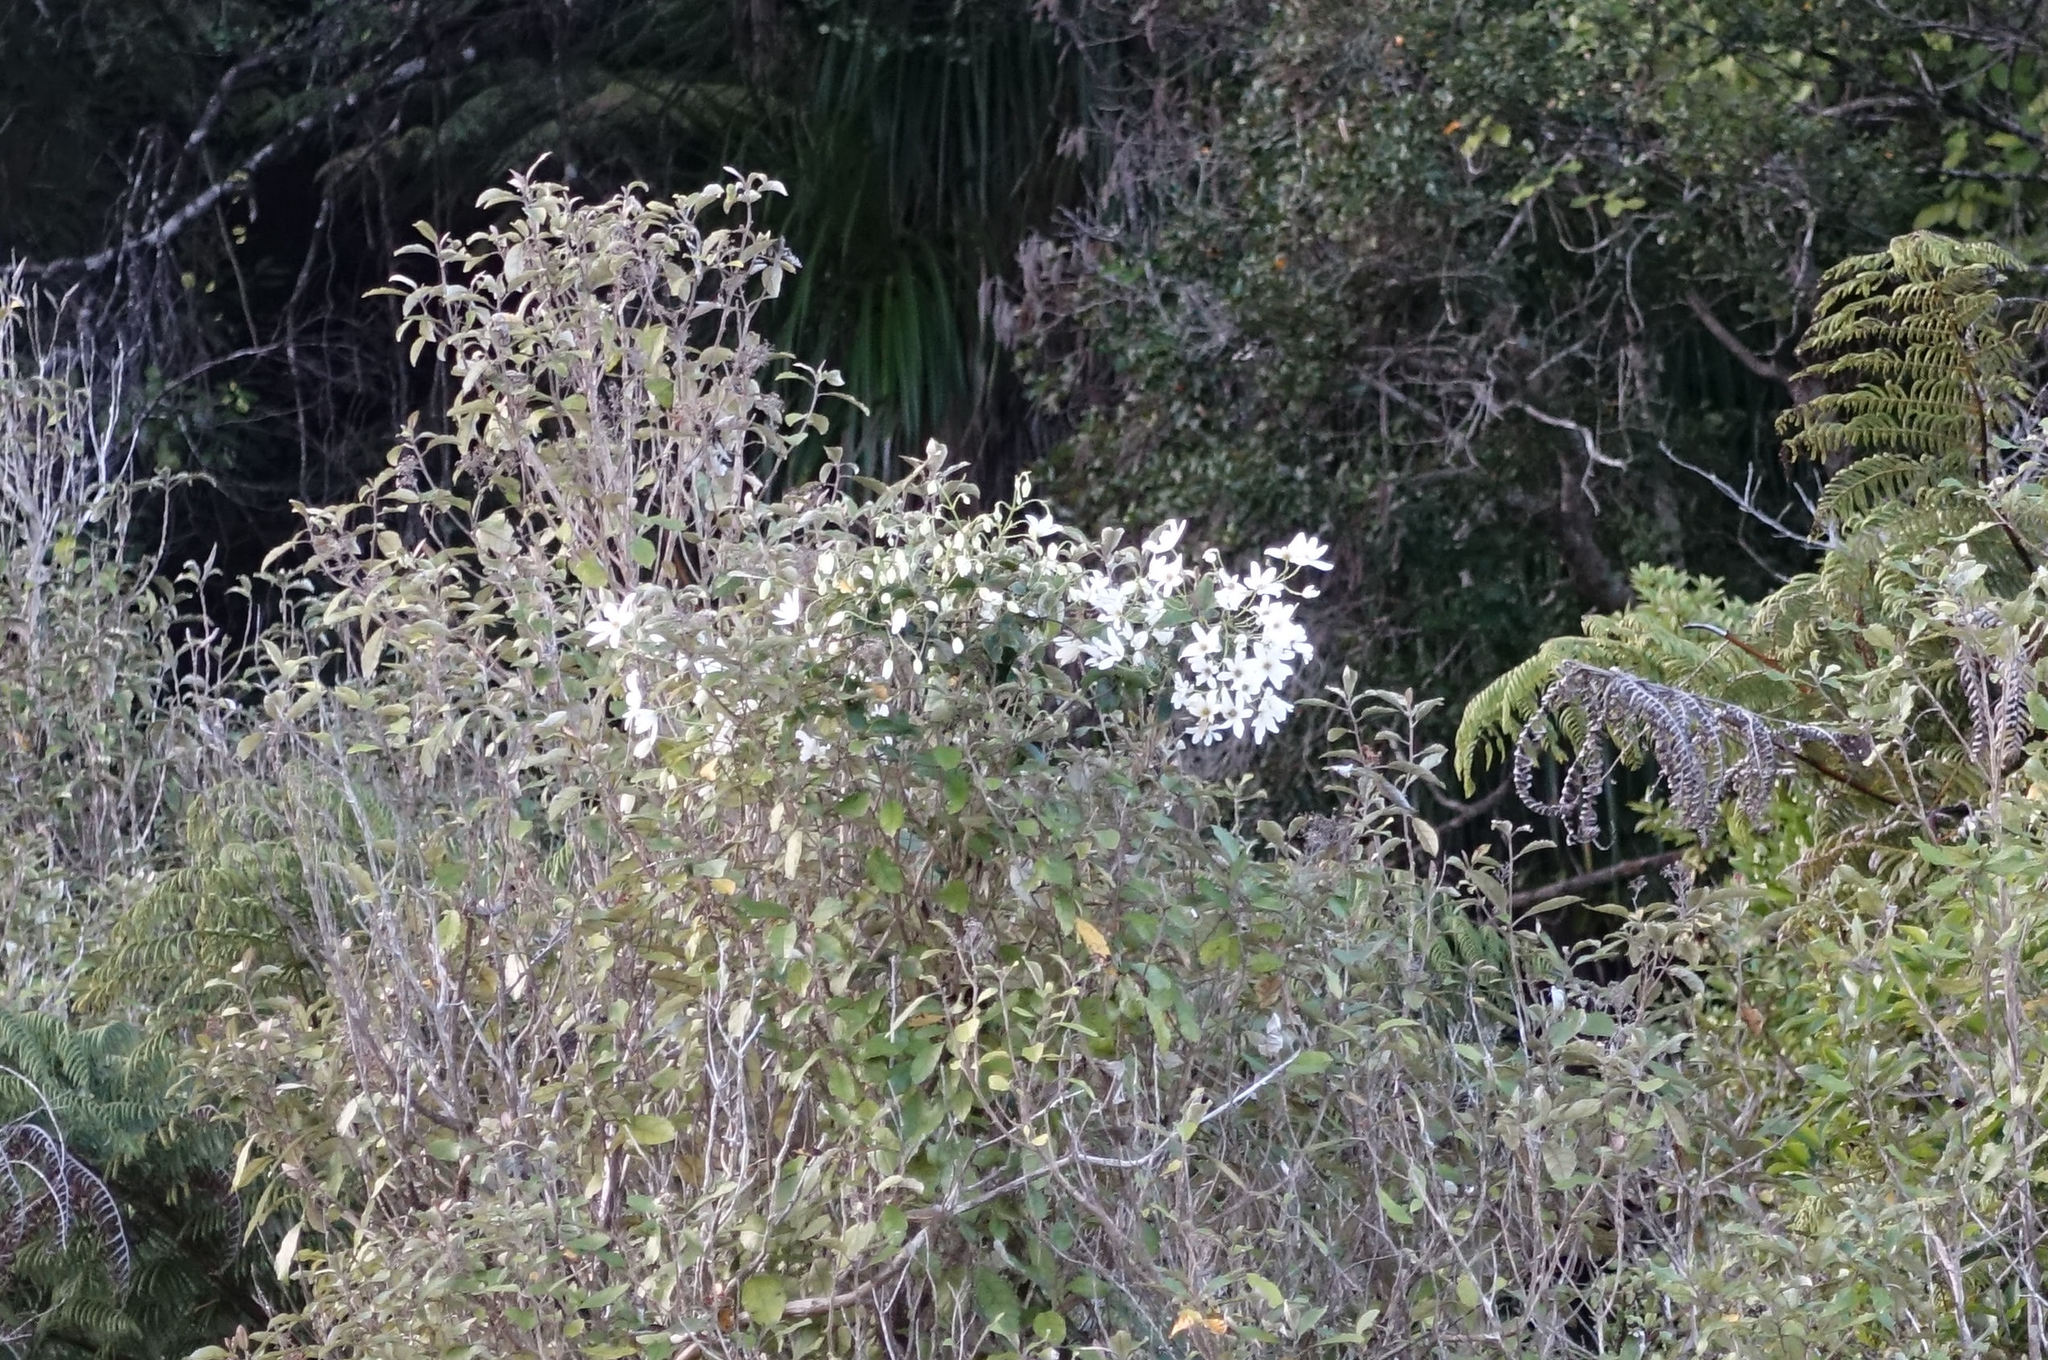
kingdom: Plantae
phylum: Tracheophyta
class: Magnoliopsida
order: Ranunculales
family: Ranunculaceae
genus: Clematis
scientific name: Clematis paniculata
